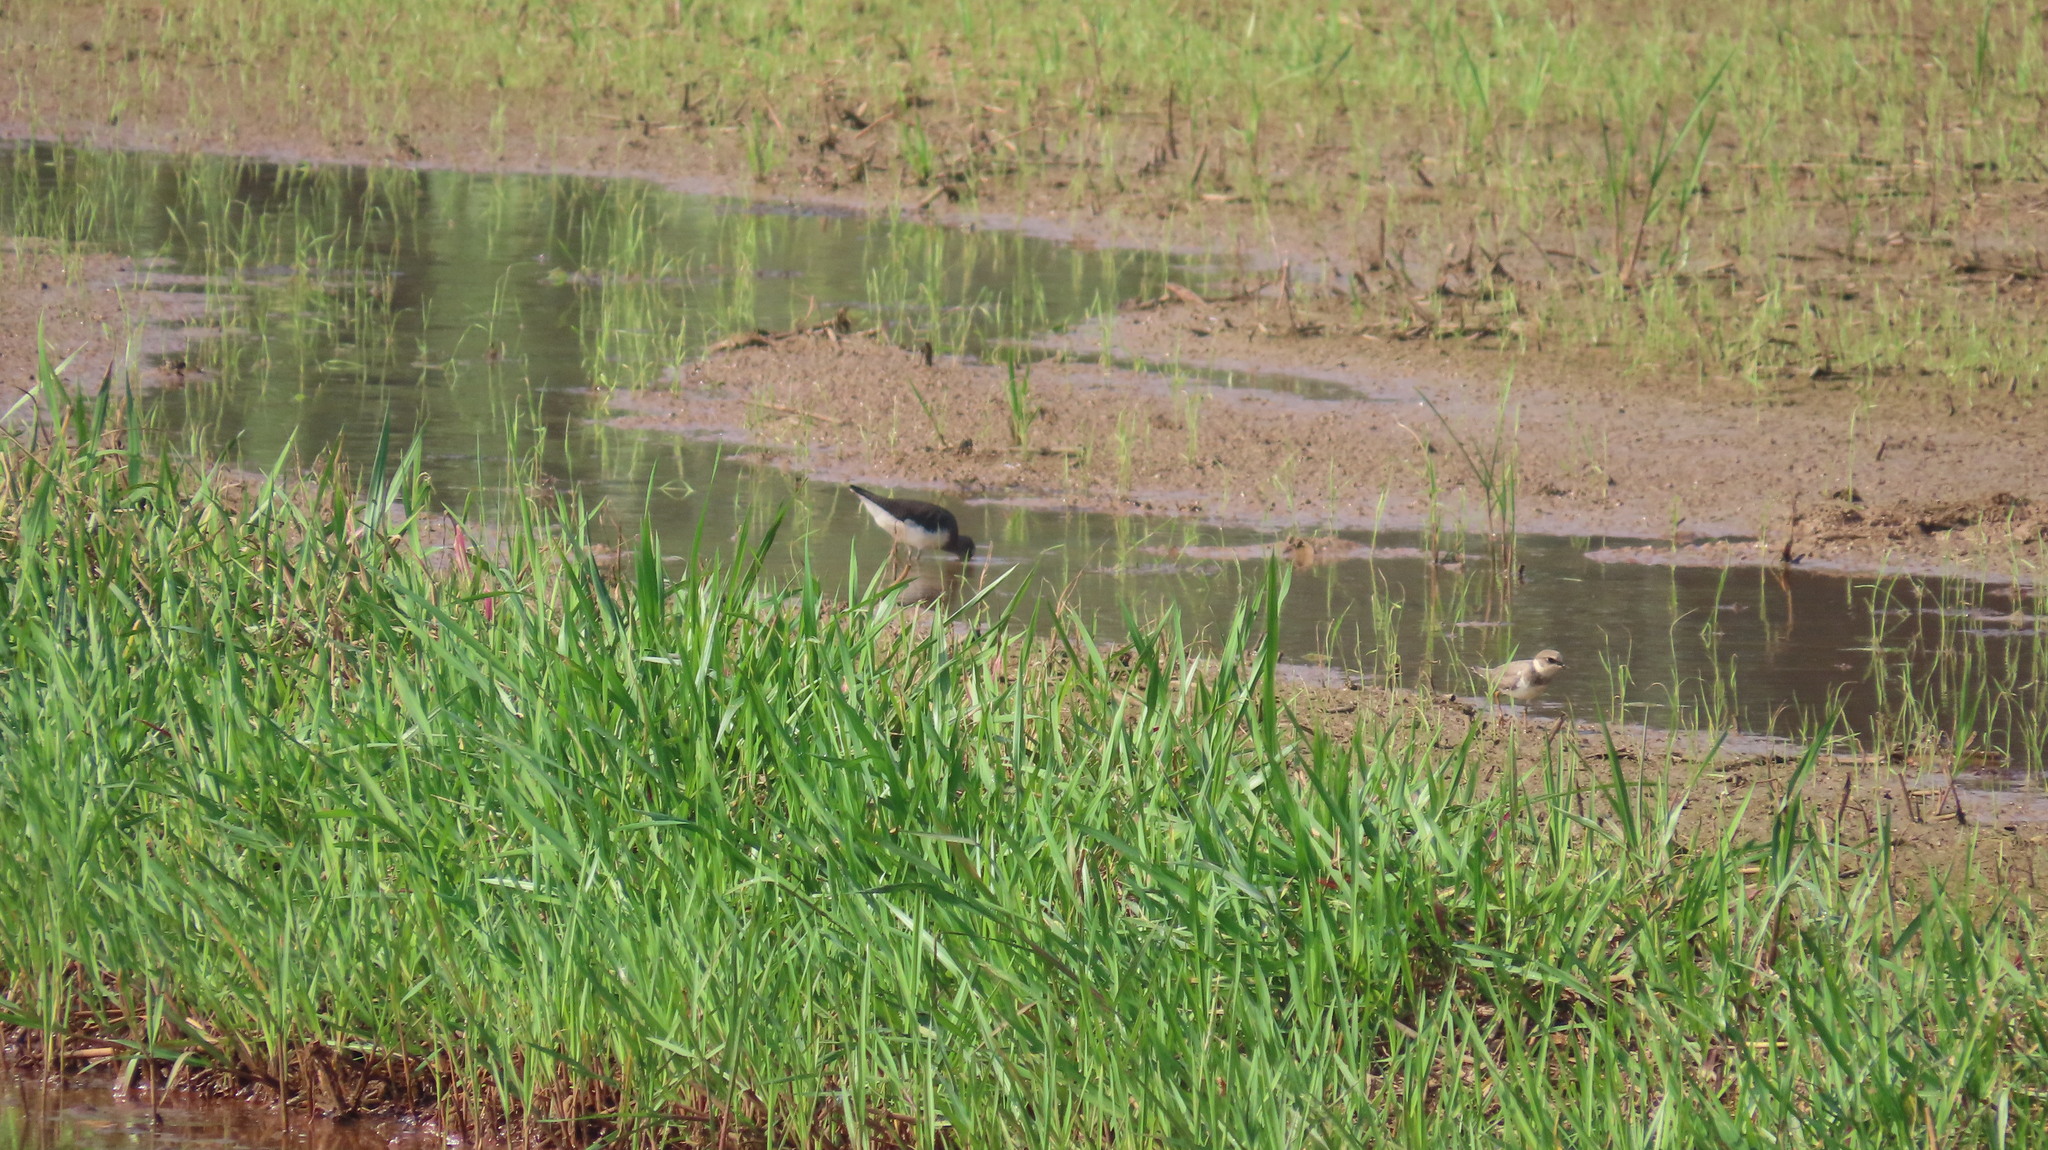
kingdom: Animalia
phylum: Chordata
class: Aves
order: Charadriiformes
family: Charadriidae
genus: Charadrius
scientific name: Charadrius dubius
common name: Little ringed plover
